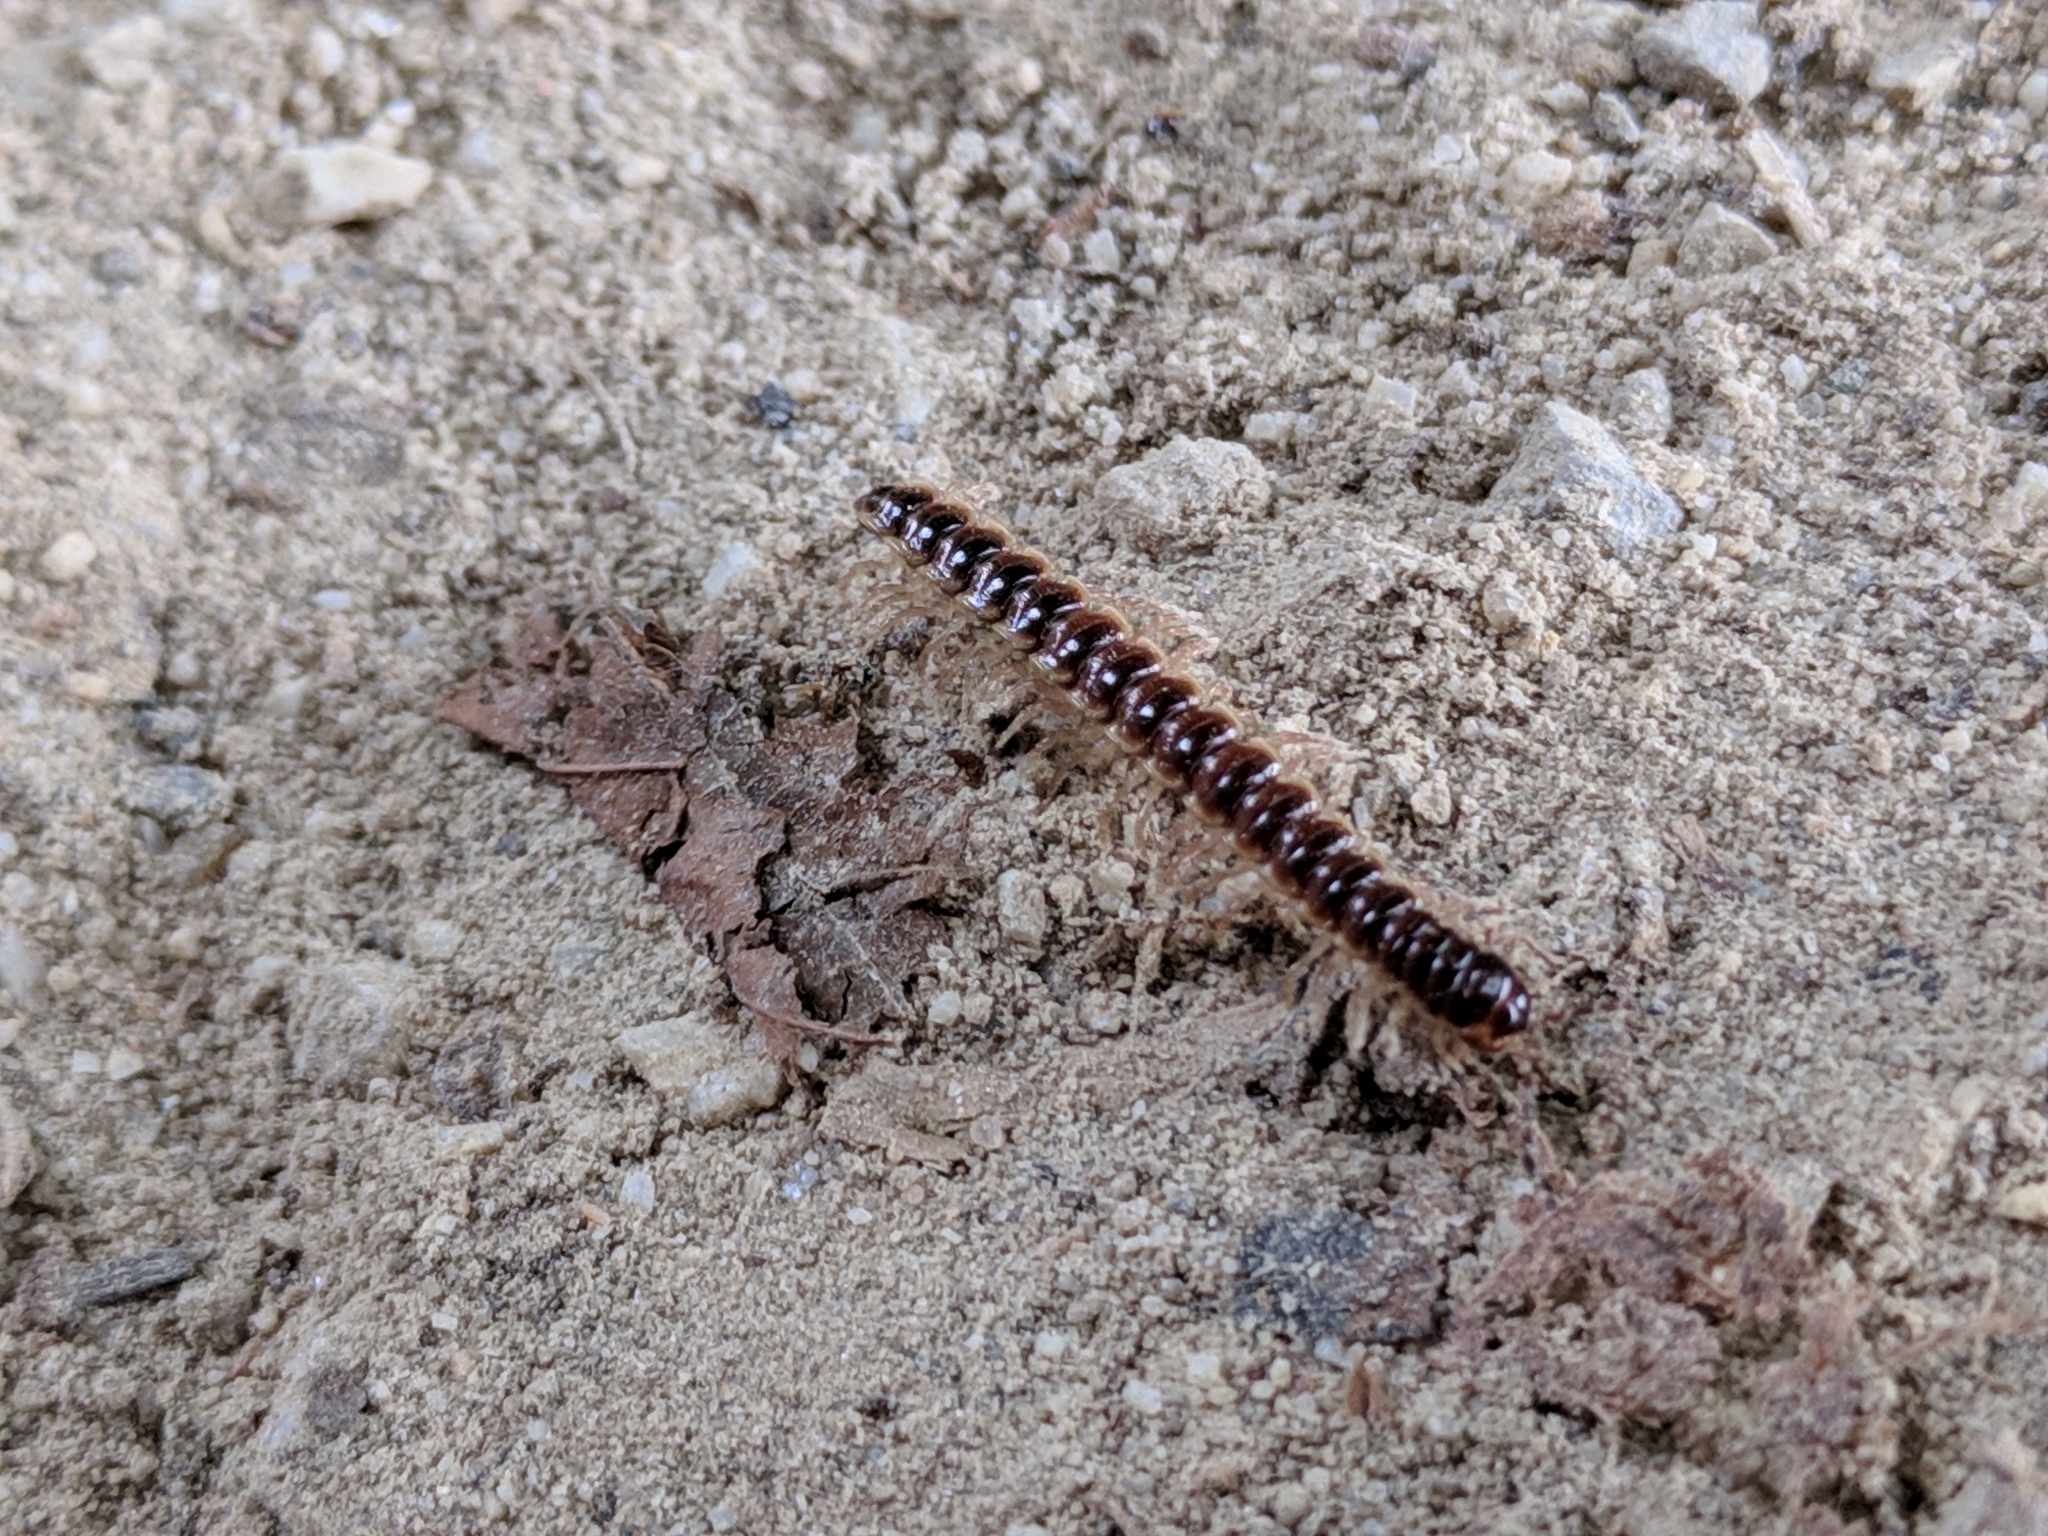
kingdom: Animalia
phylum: Arthropoda
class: Diplopoda
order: Polydesmida
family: Paradoxosomatidae
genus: Oxidus
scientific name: Oxidus gracilis
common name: Greenhouse millipede
